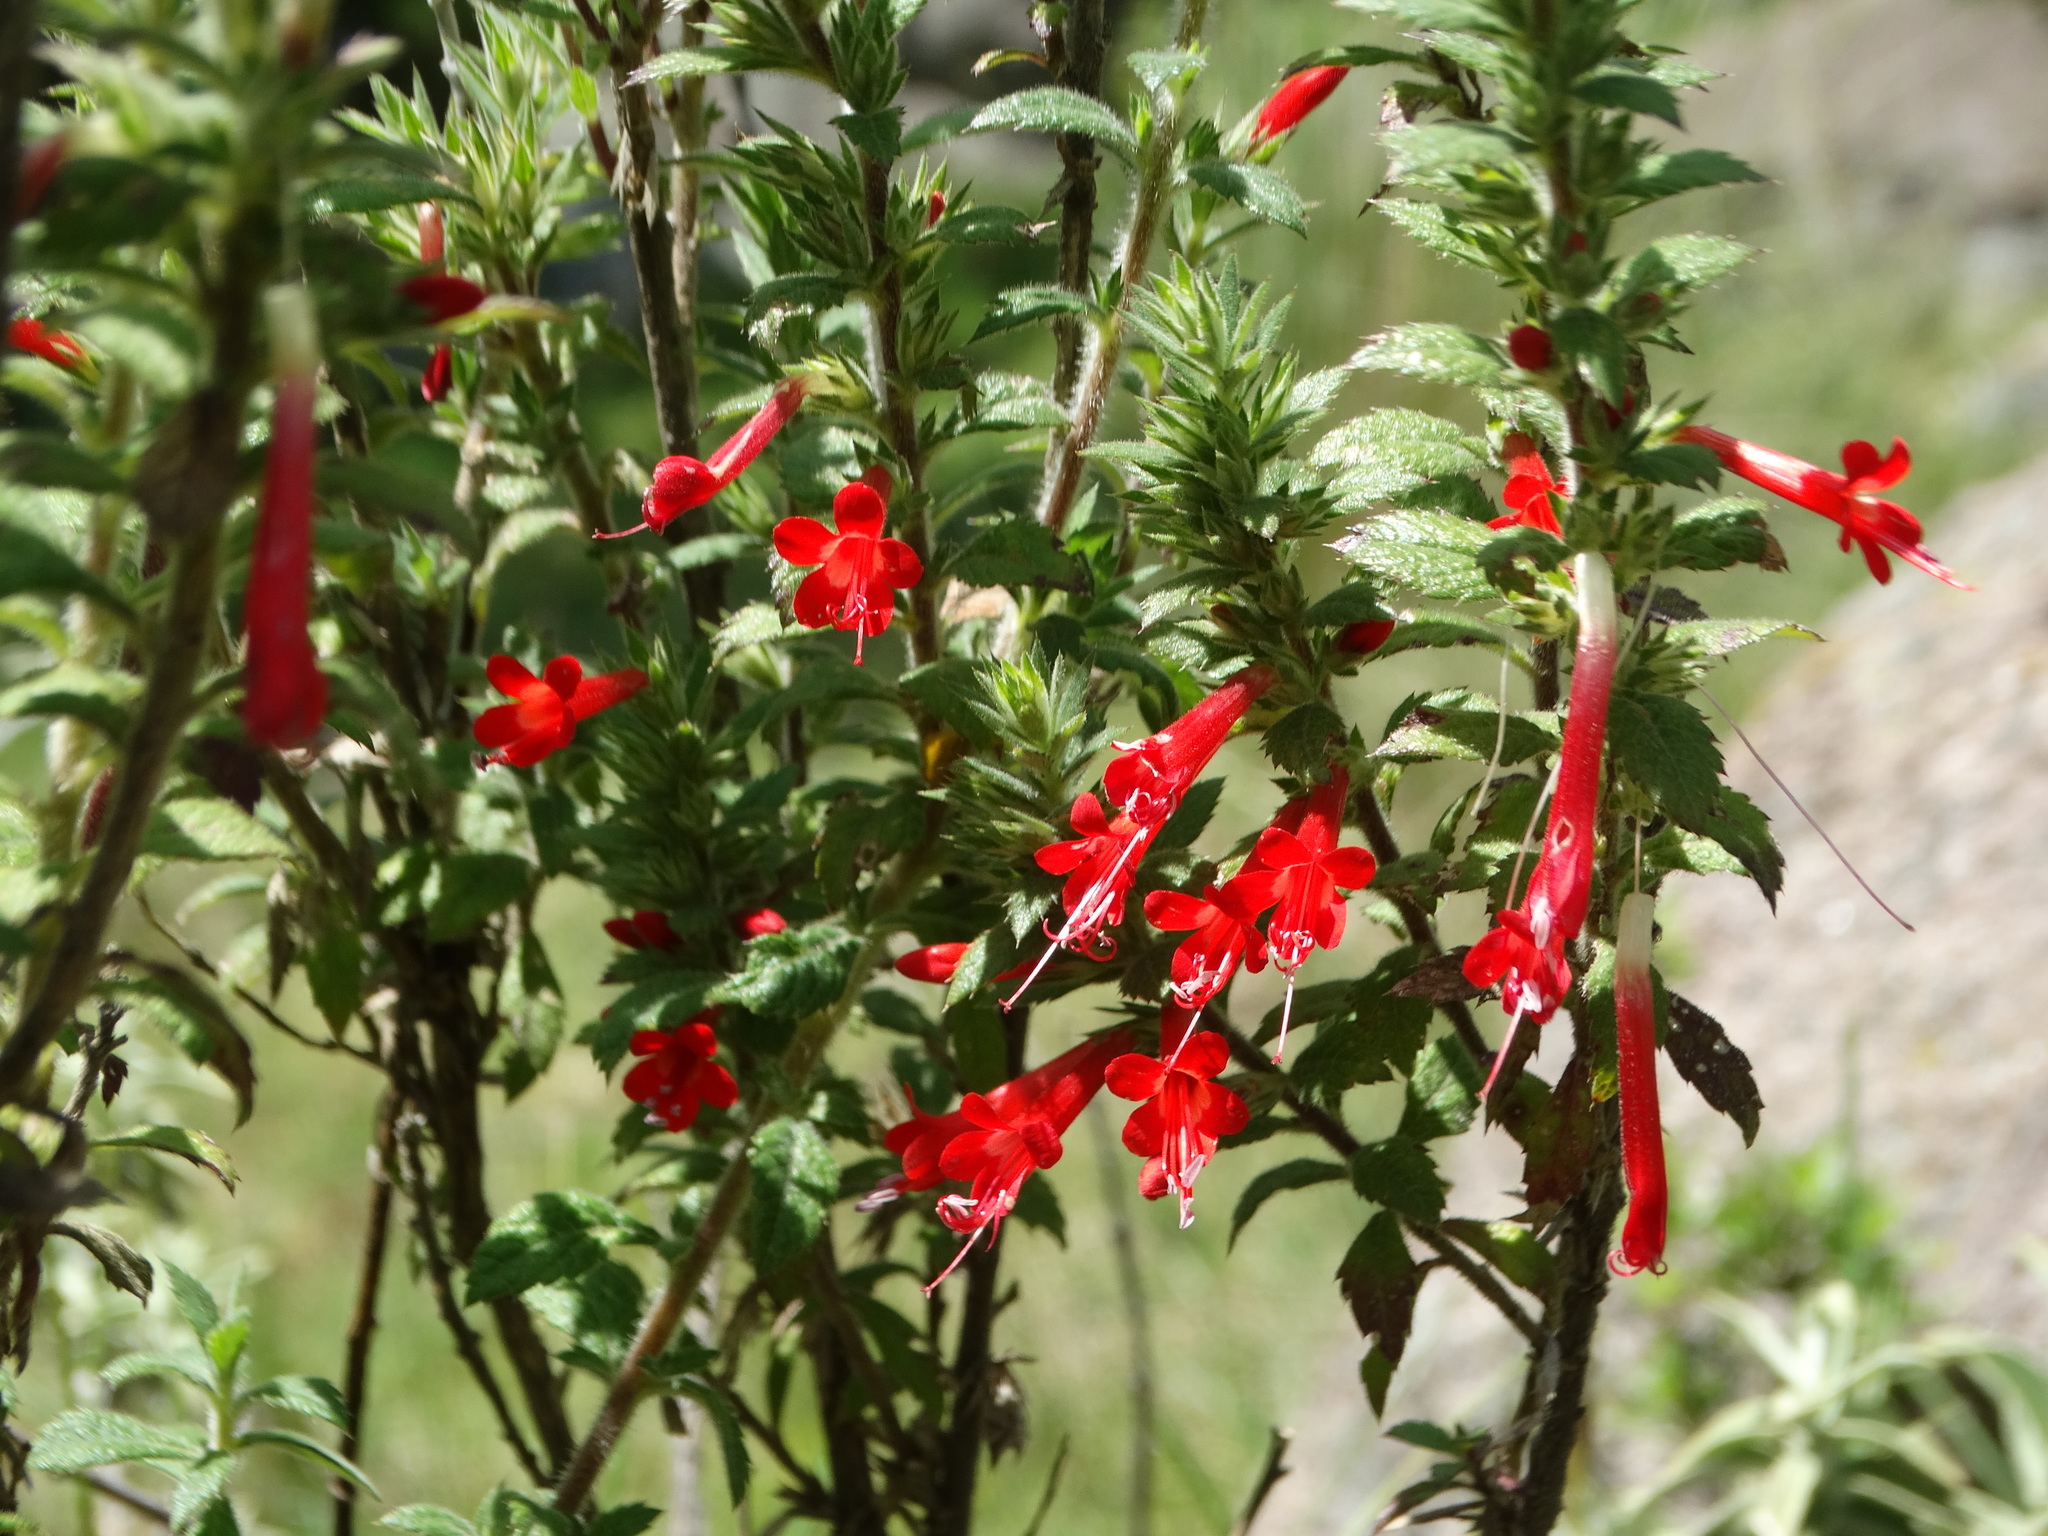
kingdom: Plantae
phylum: Tracheophyta
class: Magnoliopsida
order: Ericales
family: Polemoniaceae
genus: Loeselia
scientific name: Loeselia mexicana
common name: Mexican false calico
